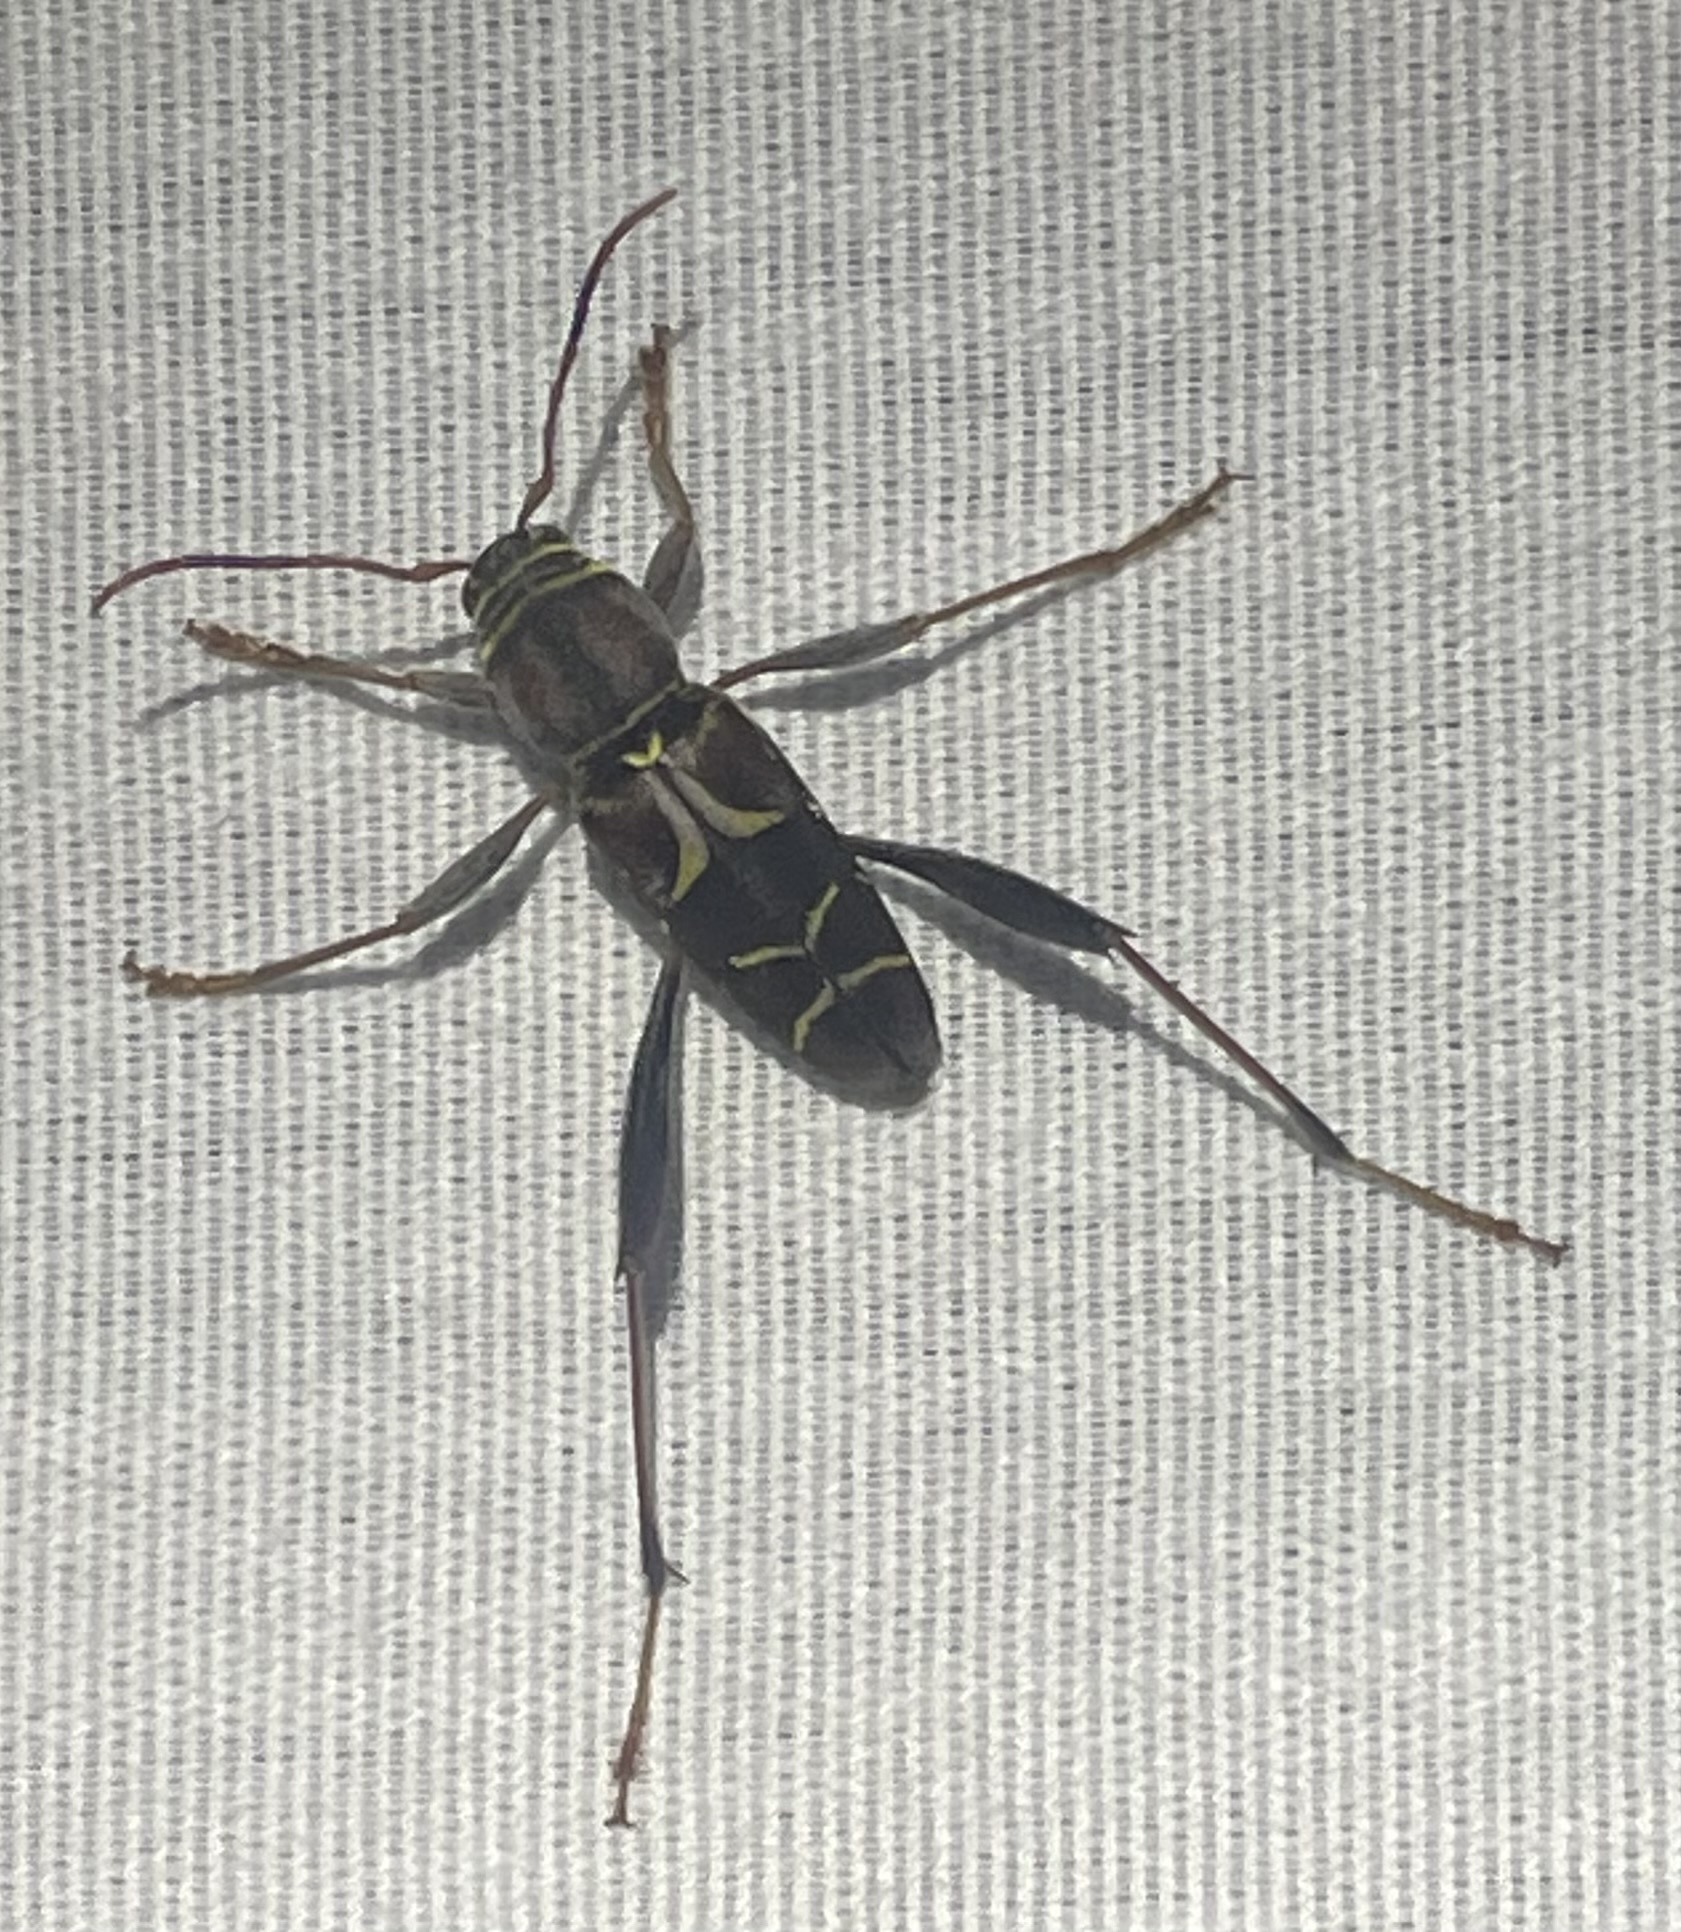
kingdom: Animalia
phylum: Arthropoda
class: Insecta
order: Coleoptera
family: Cerambycidae
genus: Neoclytus
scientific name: Neoclytus mucronatus
